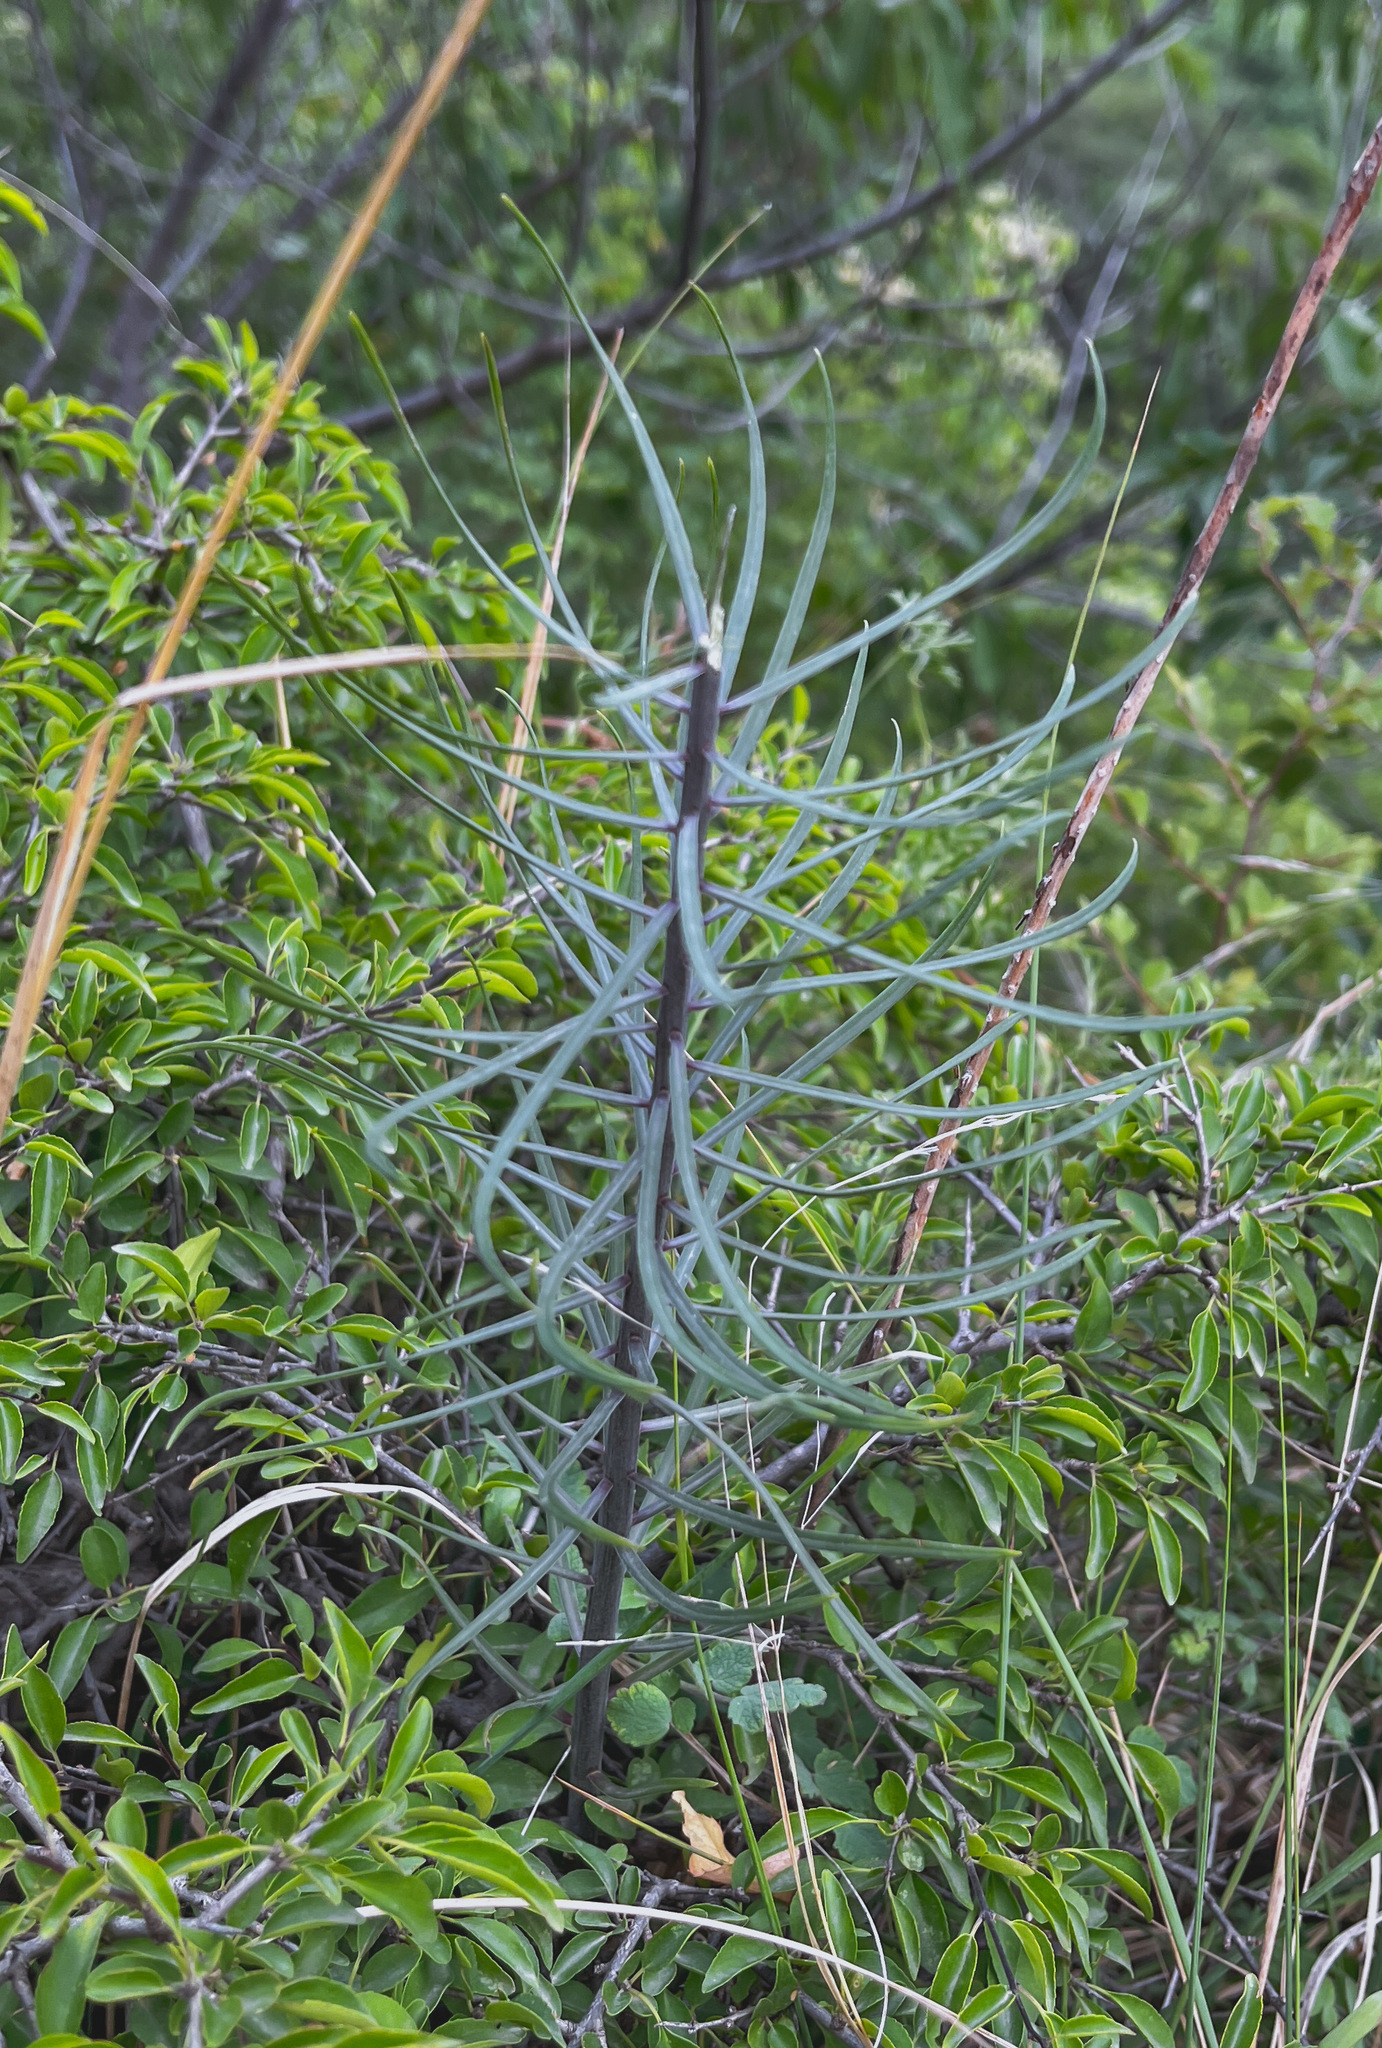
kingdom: Plantae
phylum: Tracheophyta
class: Liliopsida
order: Liliales
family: Liliaceae
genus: Lilium
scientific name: Lilium pumilum
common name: Coral lily
